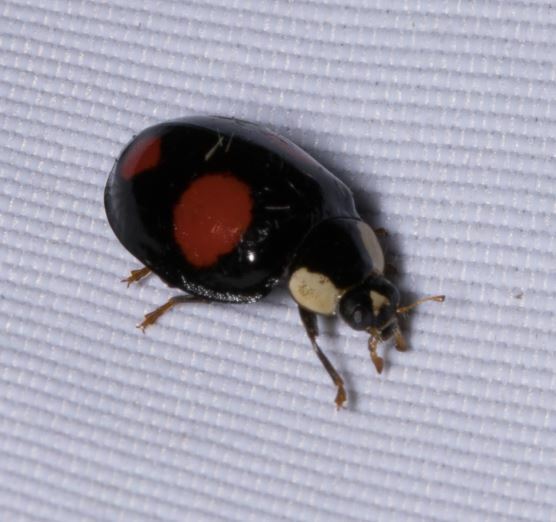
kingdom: Animalia
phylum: Arthropoda
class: Insecta
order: Coleoptera
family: Coccinellidae
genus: Harmonia
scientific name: Harmonia axyridis
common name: Harlequin ladybird
